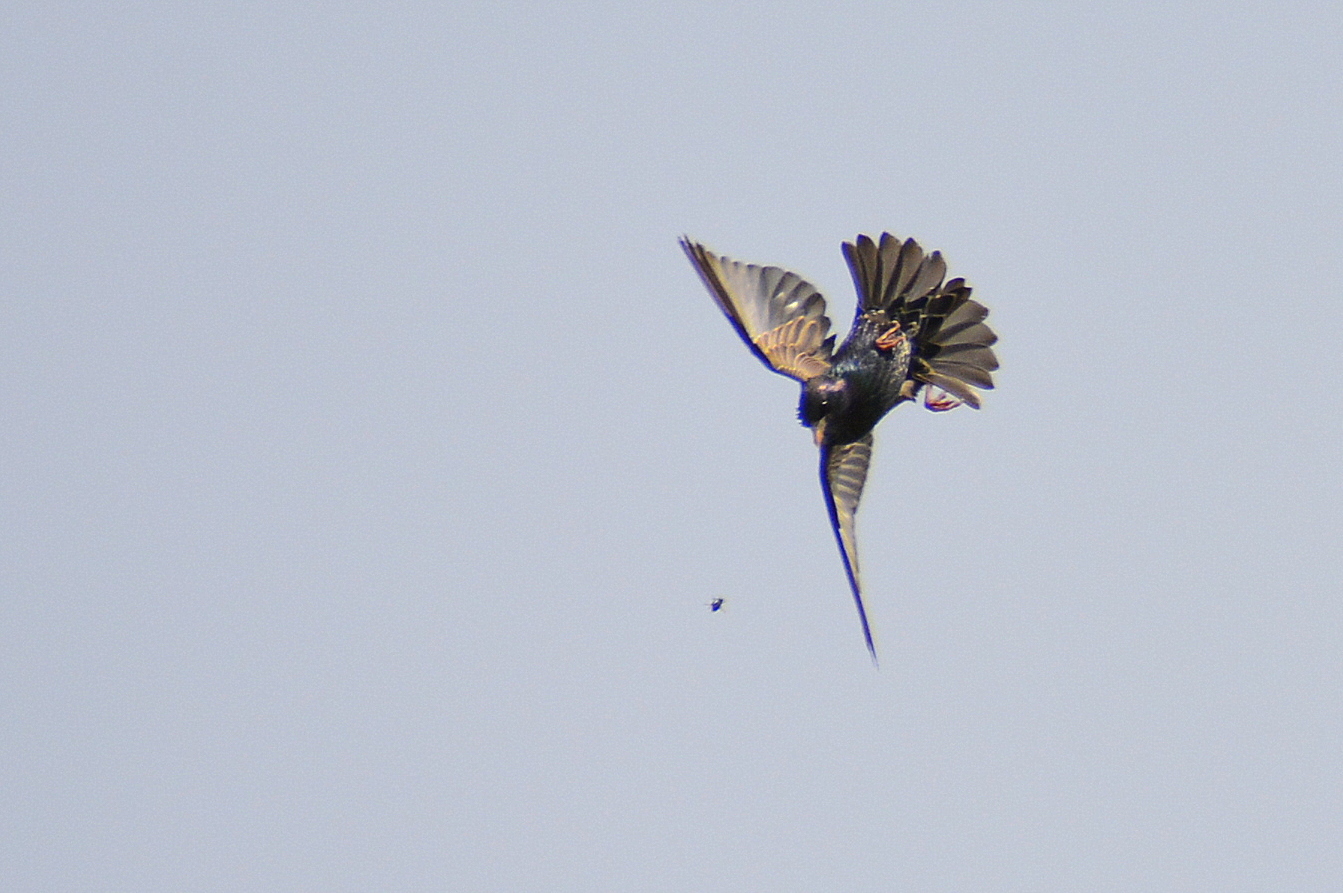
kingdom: Animalia
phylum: Chordata
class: Aves
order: Passeriformes
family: Sturnidae
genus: Sturnus
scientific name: Sturnus vulgaris
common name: Common starling
